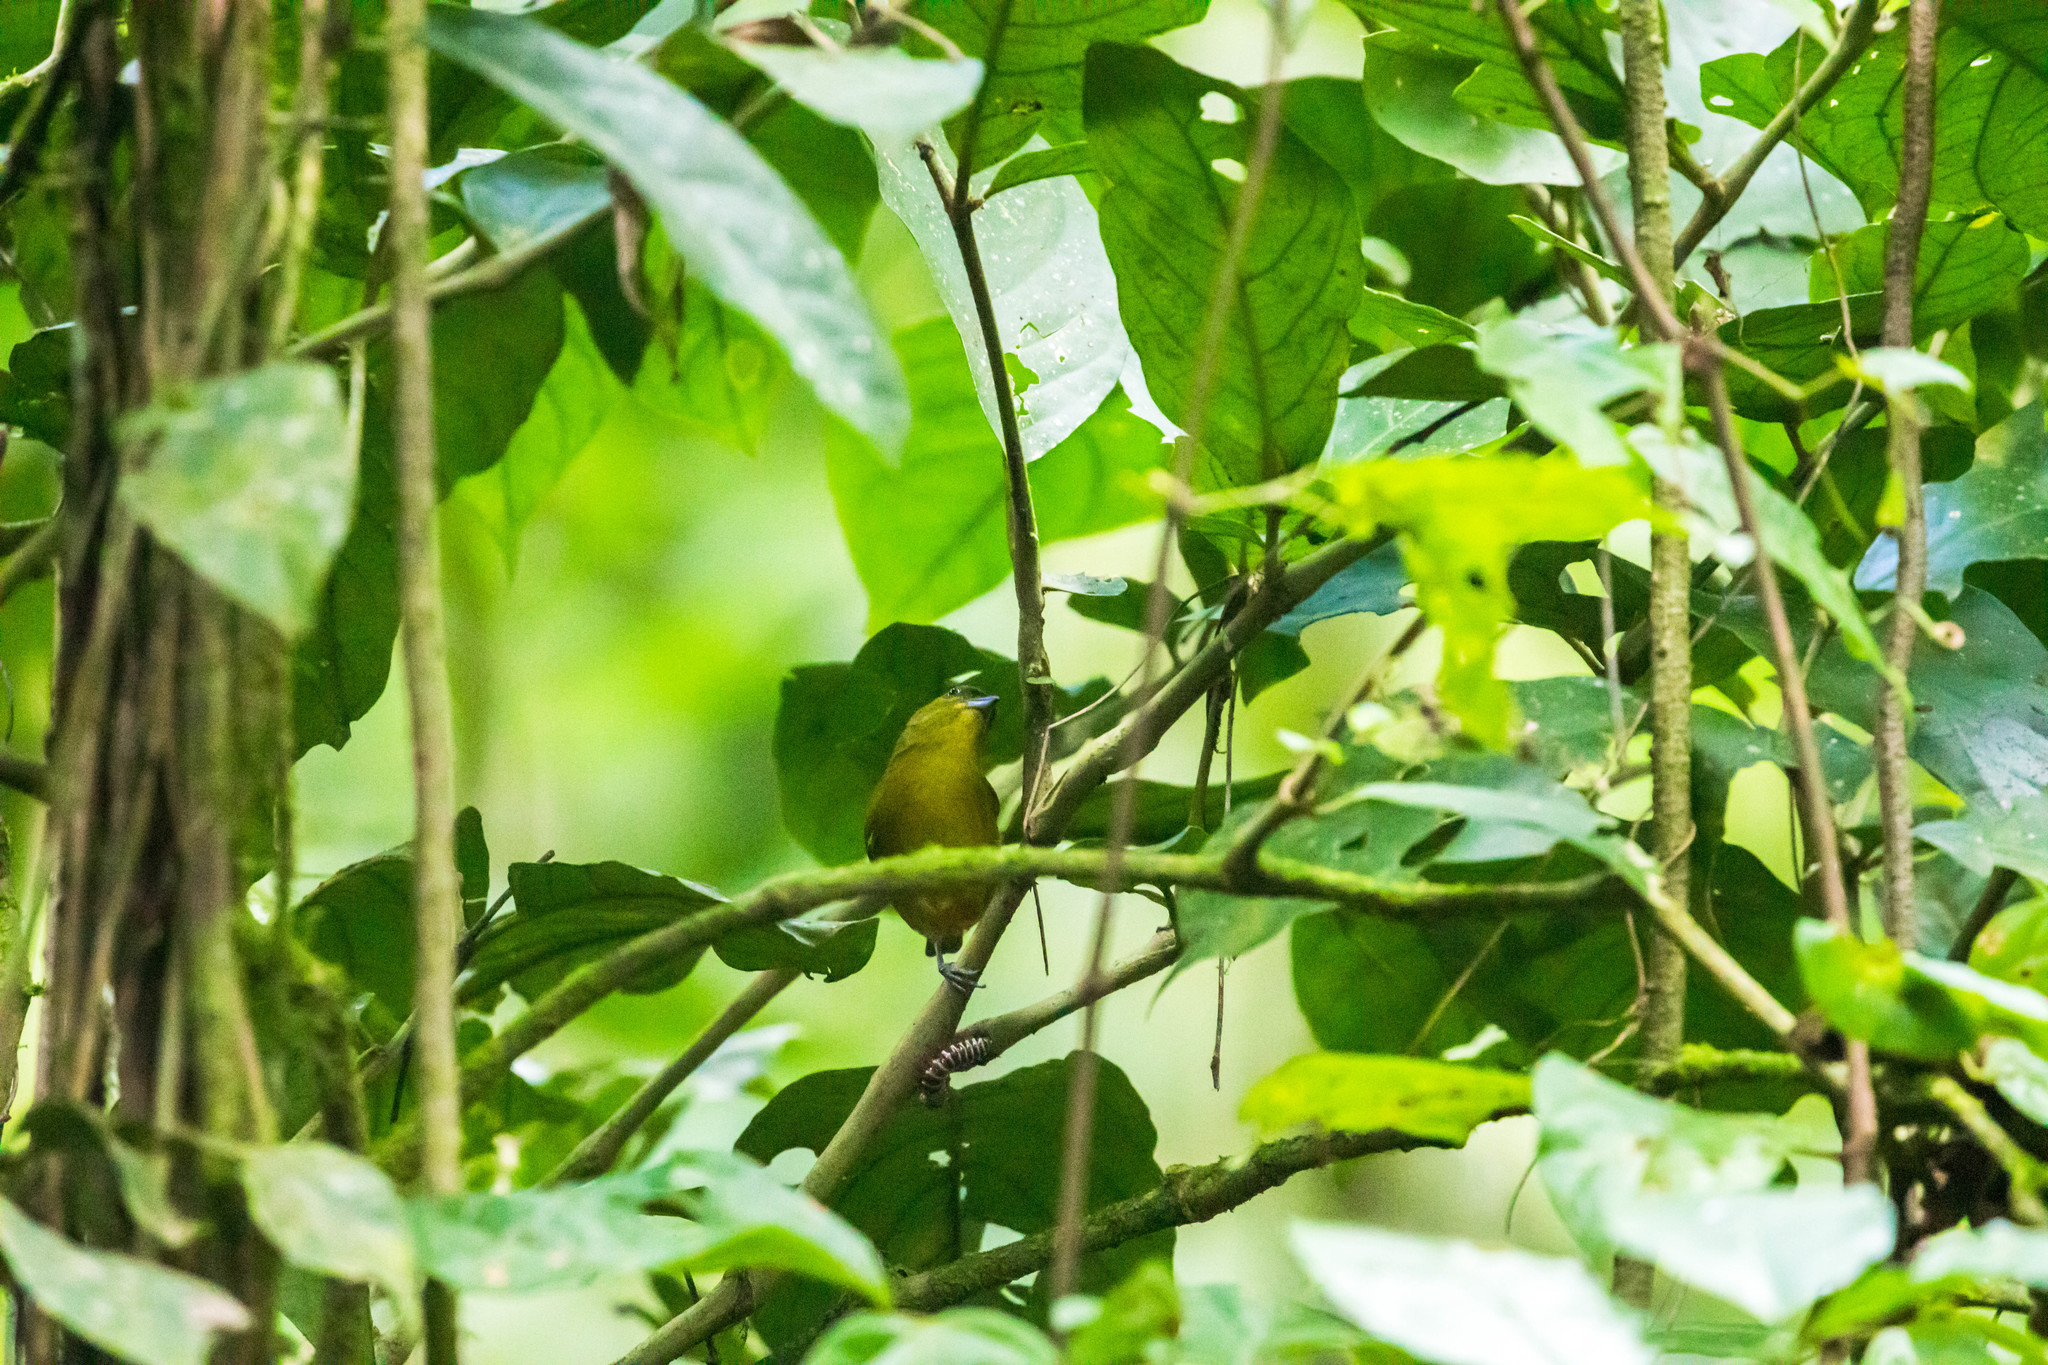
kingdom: Animalia
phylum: Chordata
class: Aves
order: Passeriformes
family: Fringillidae
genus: Euphonia
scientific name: Euphonia gouldi
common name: Olive-backed euphonia
